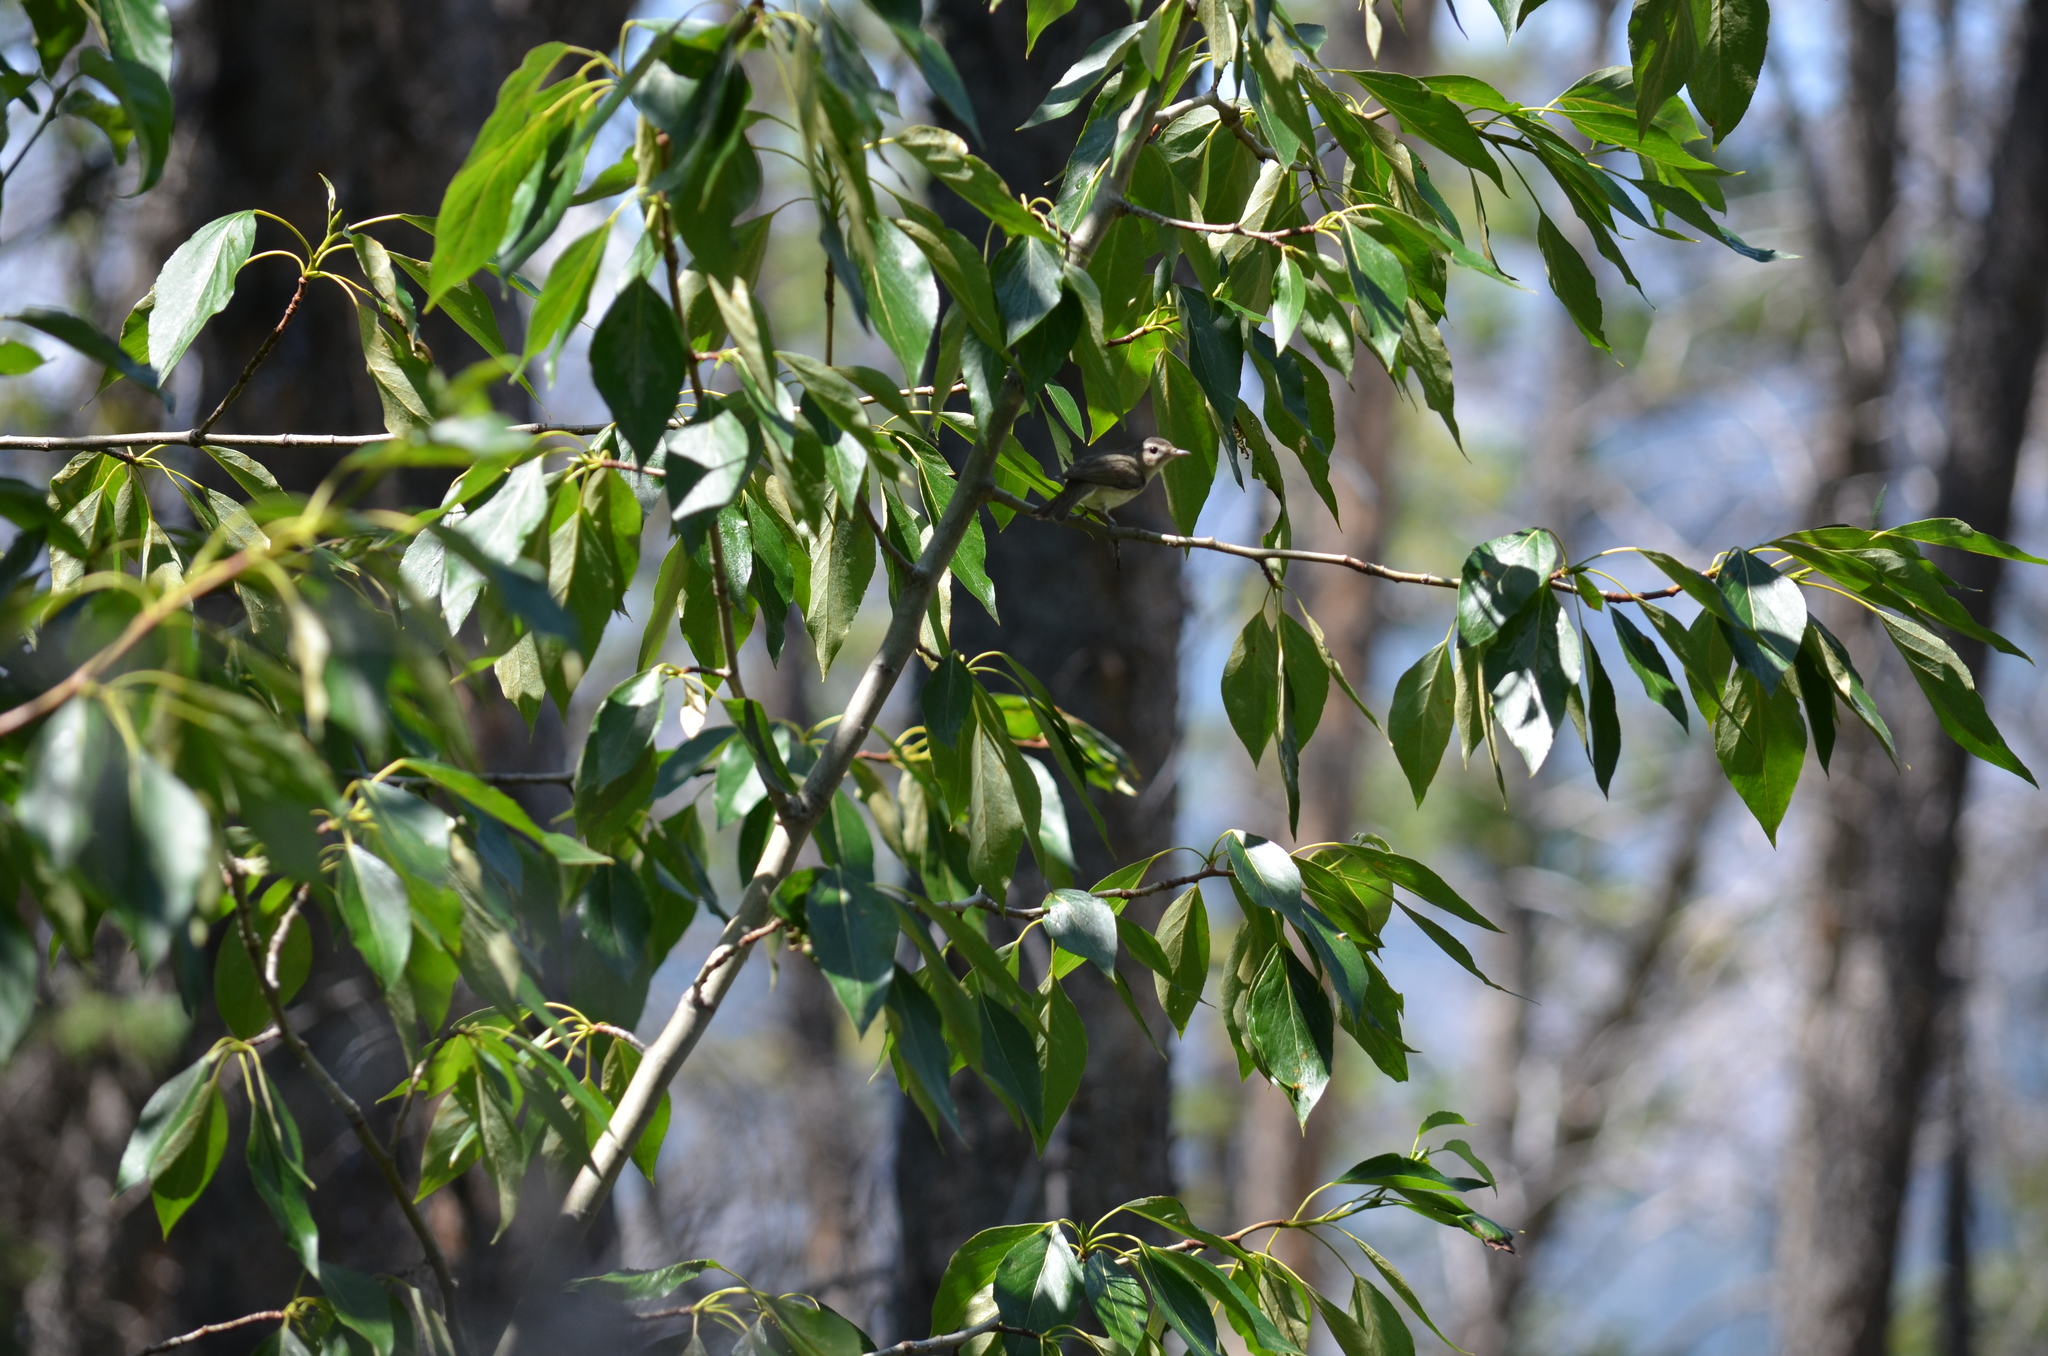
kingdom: Animalia
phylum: Chordata
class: Aves
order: Passeriformes
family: Vireonidae
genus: Vireo
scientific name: Vireo gilvus
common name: Warbling vireo
